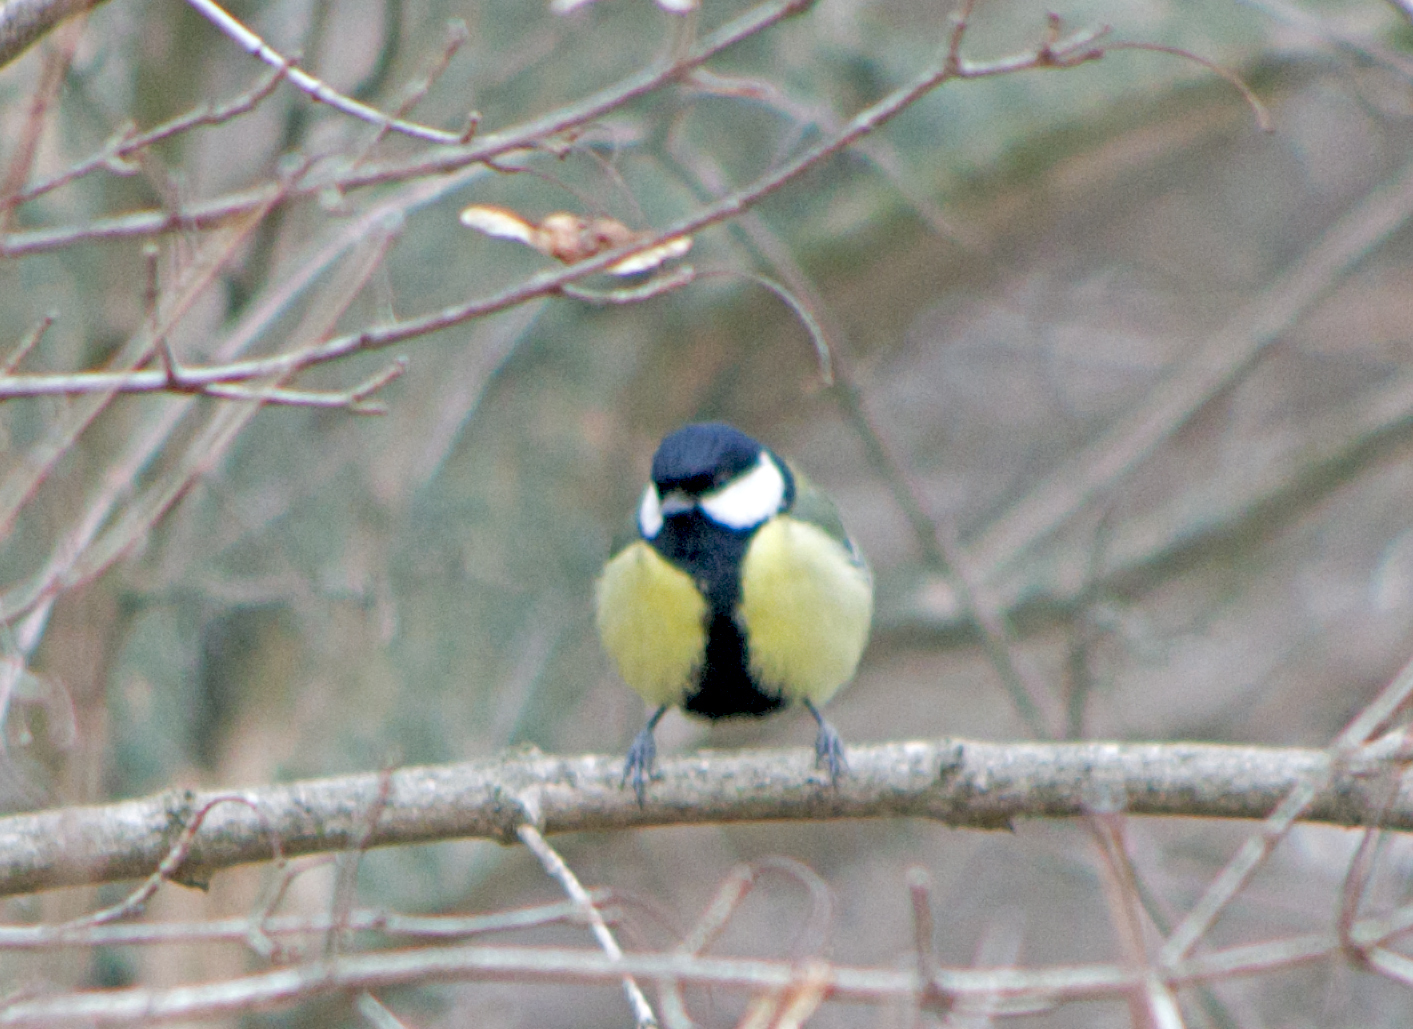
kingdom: Animalia
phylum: Chordata
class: Aves
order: Passeriformes
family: Paridae
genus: Parus
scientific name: Parus major
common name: Great tit
